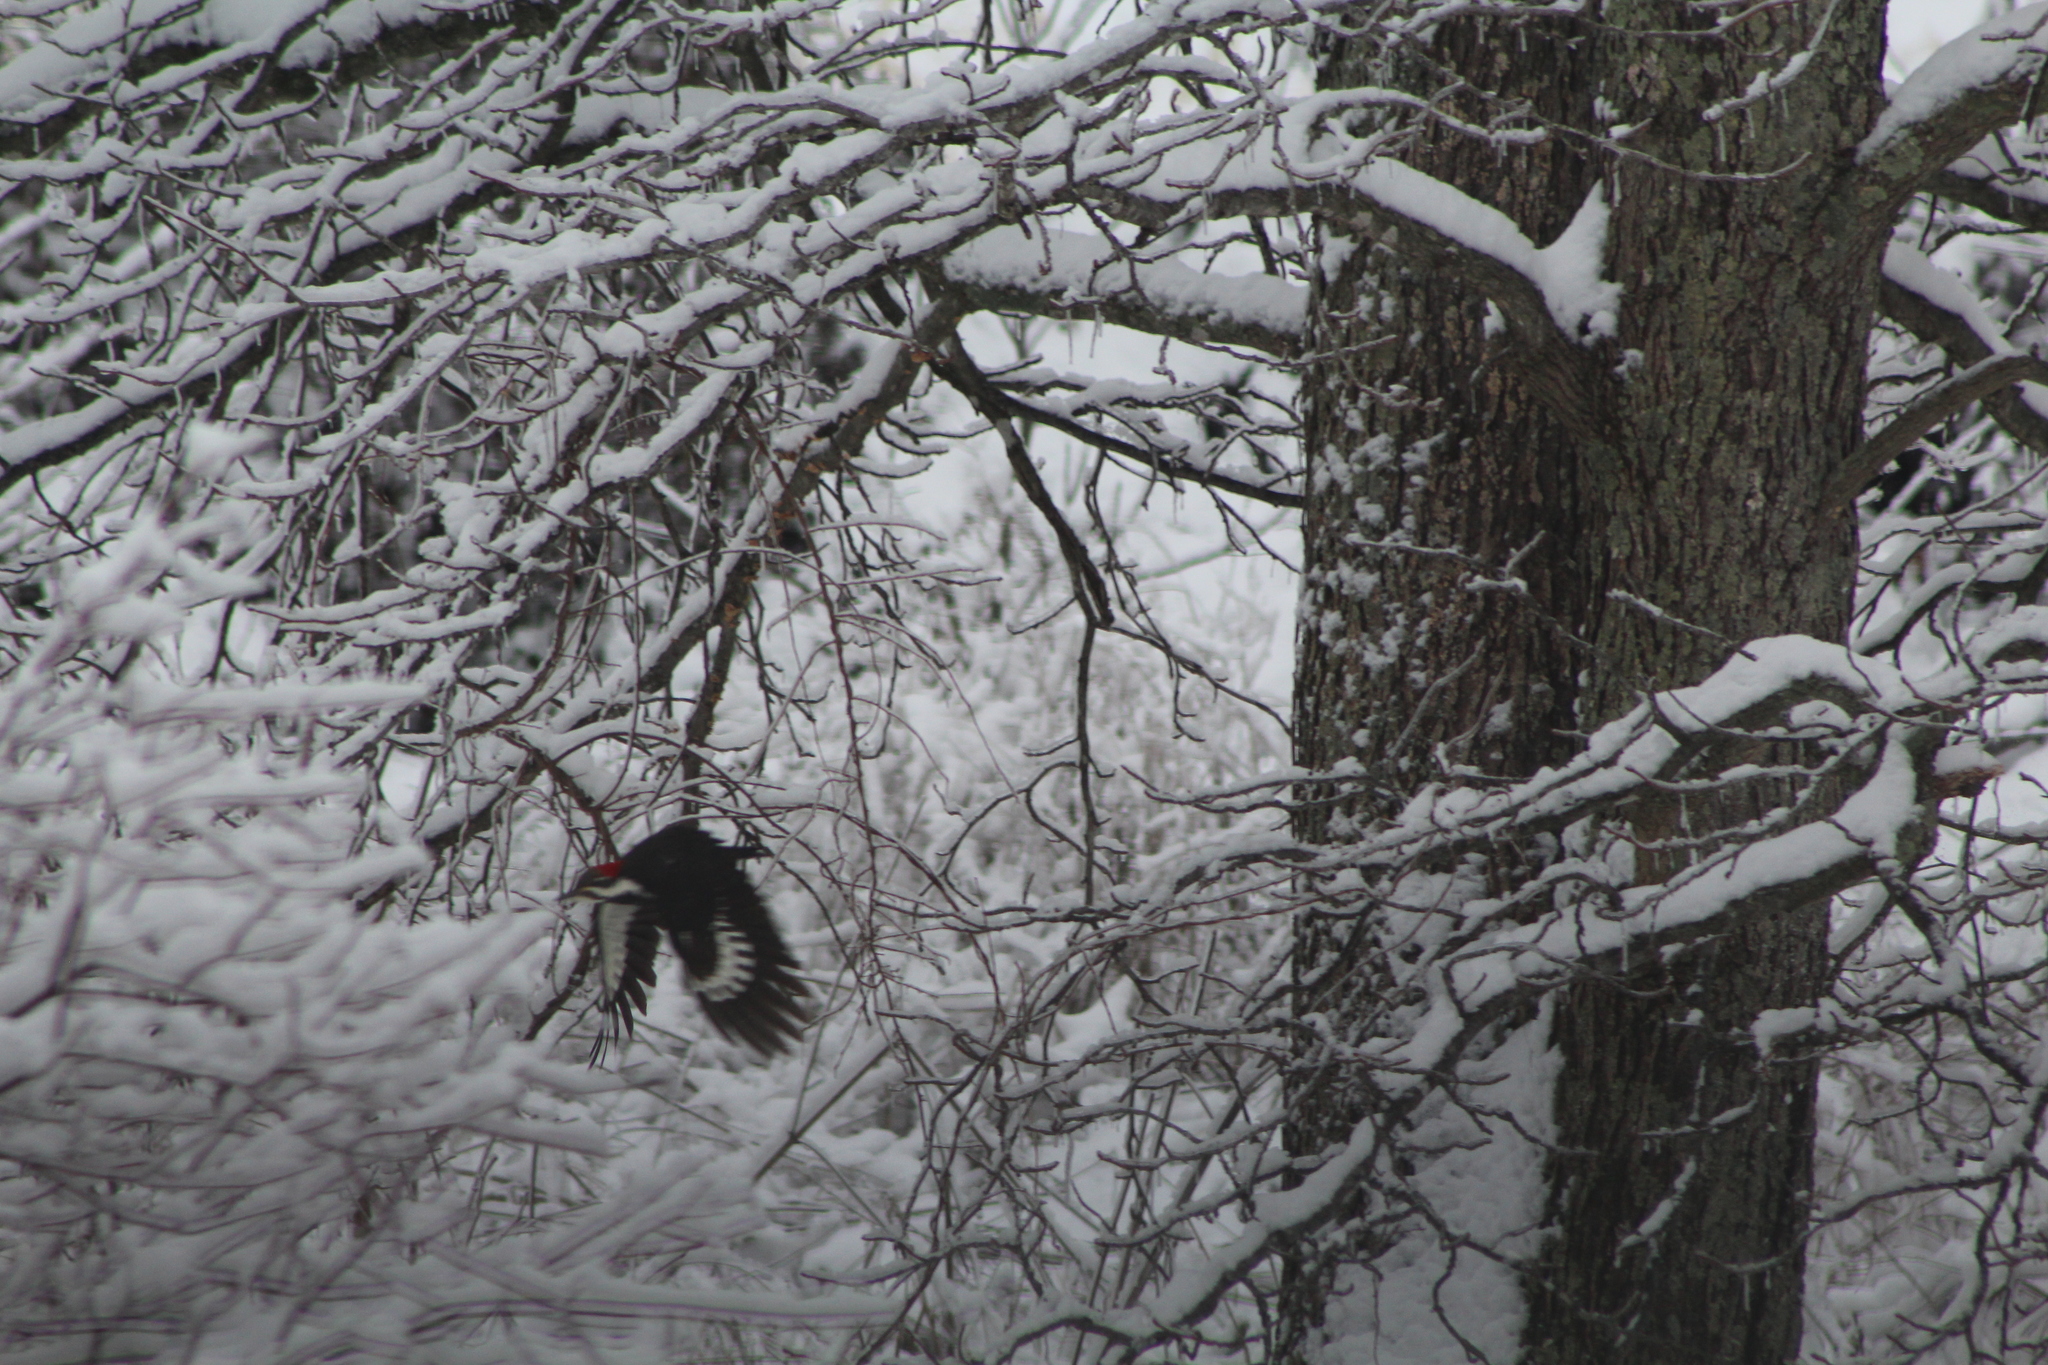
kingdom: Animalia
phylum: Chordata
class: Aves
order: Piciformes
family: Picidae
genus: Dryocopus
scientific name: Dryocopus pileatus
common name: Pileated woodpecker
